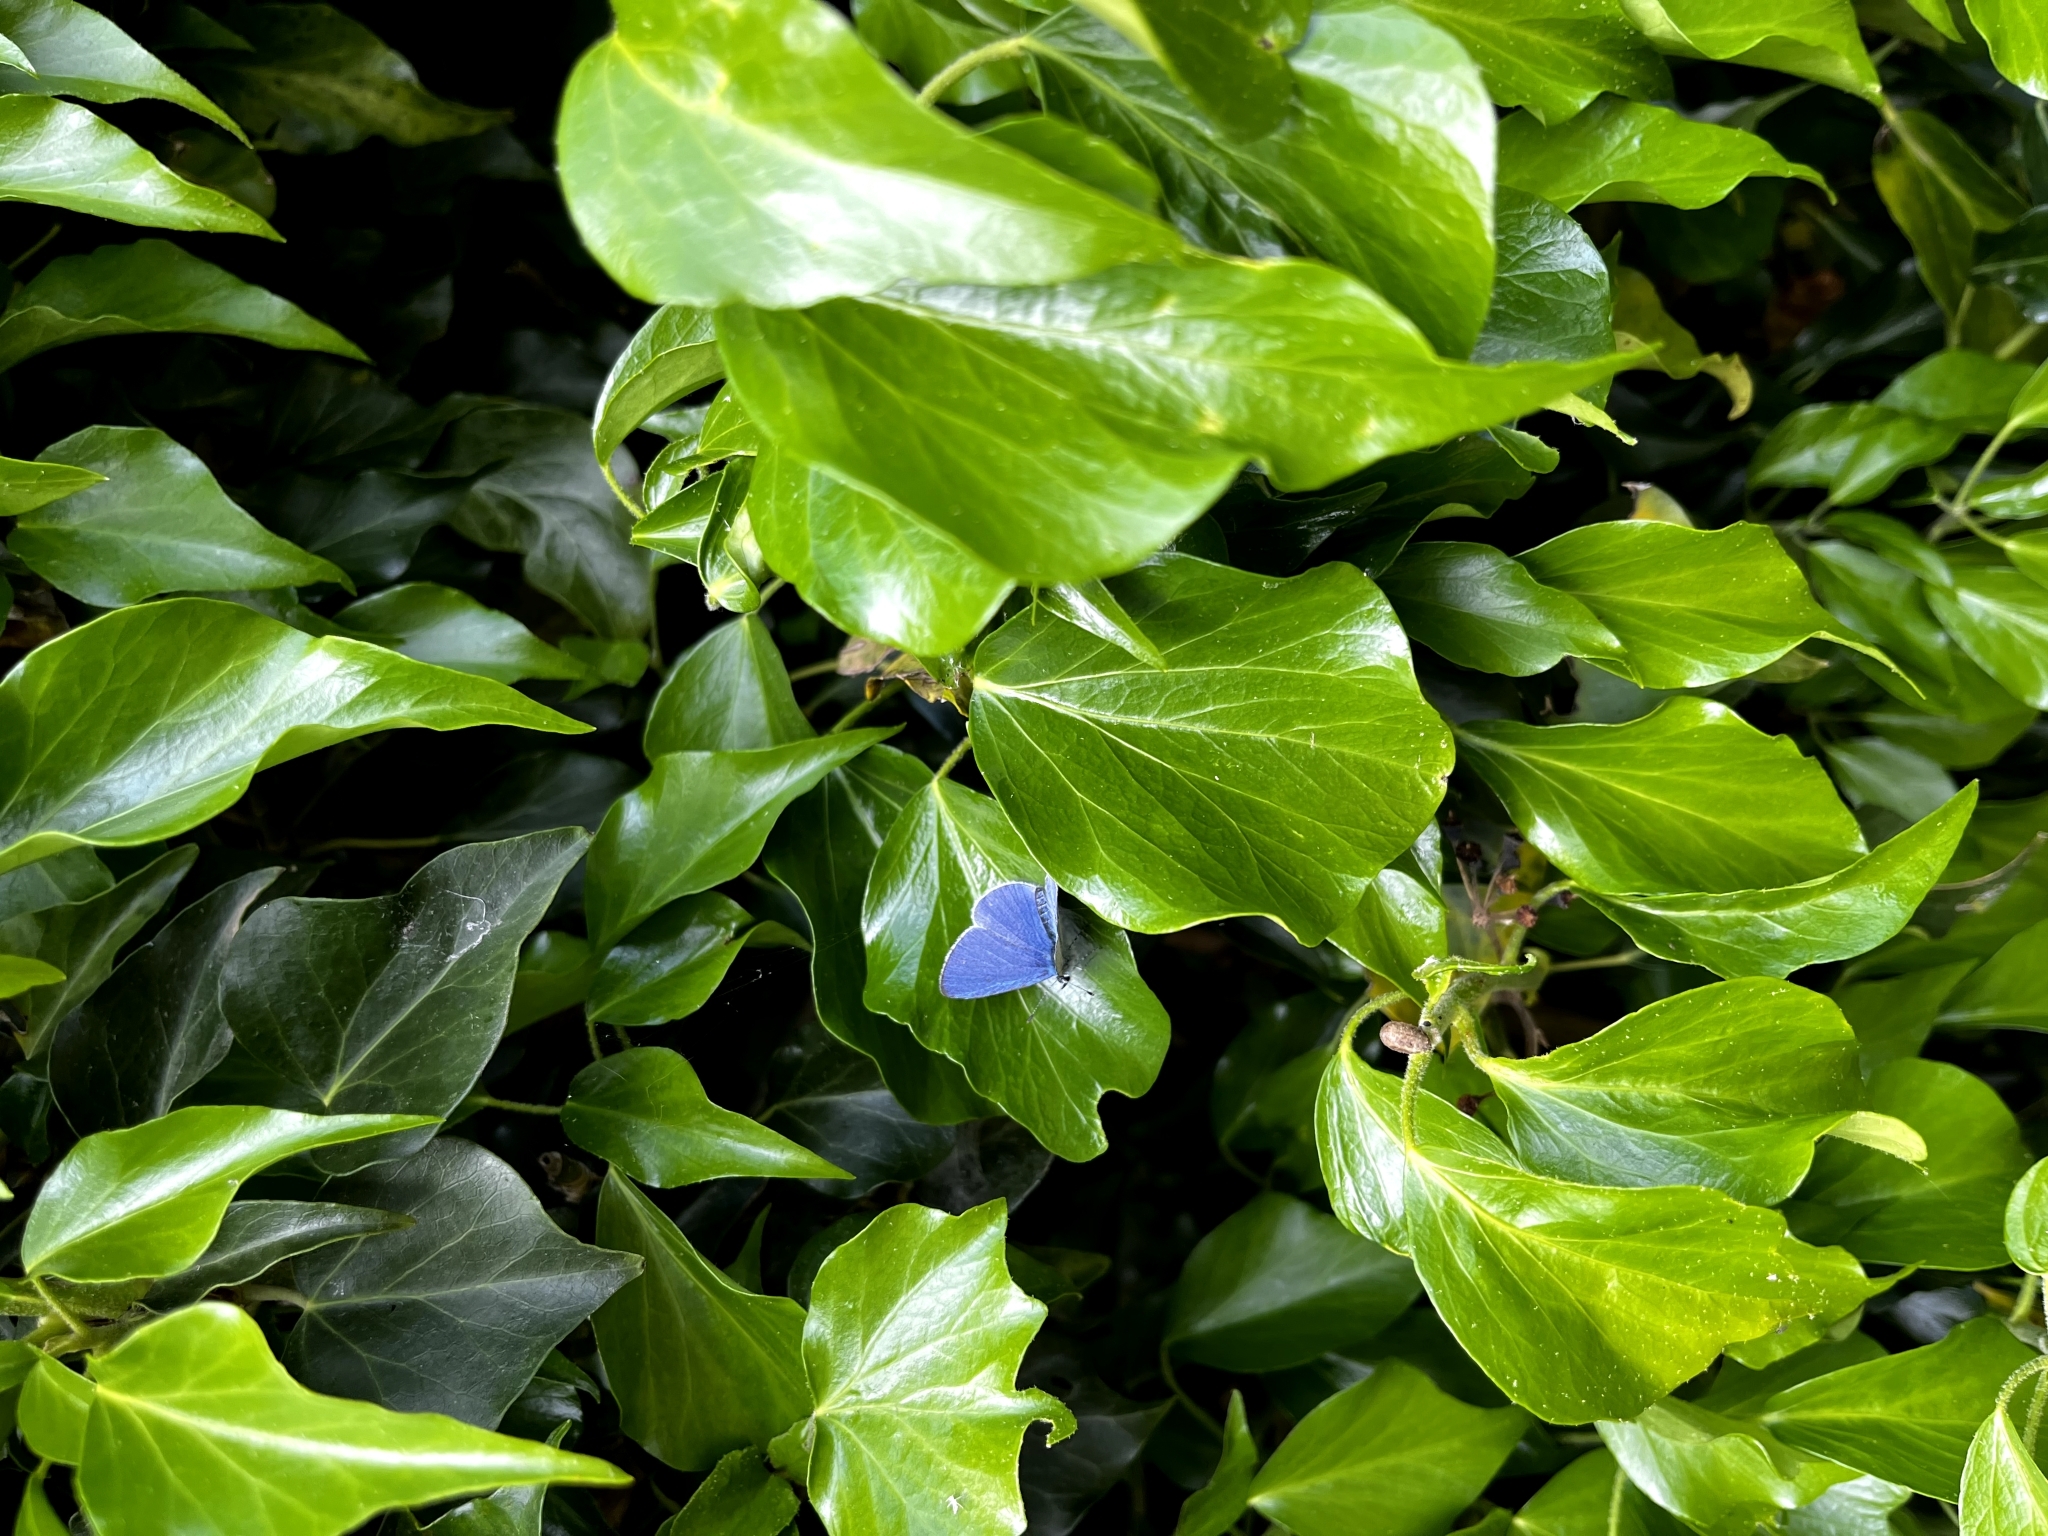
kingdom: Animalia
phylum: Arthropoda
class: Insecta
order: Lepidoptera
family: Lycaenidae
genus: Celastrina
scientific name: Celastrina argiolus
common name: Holly blue
